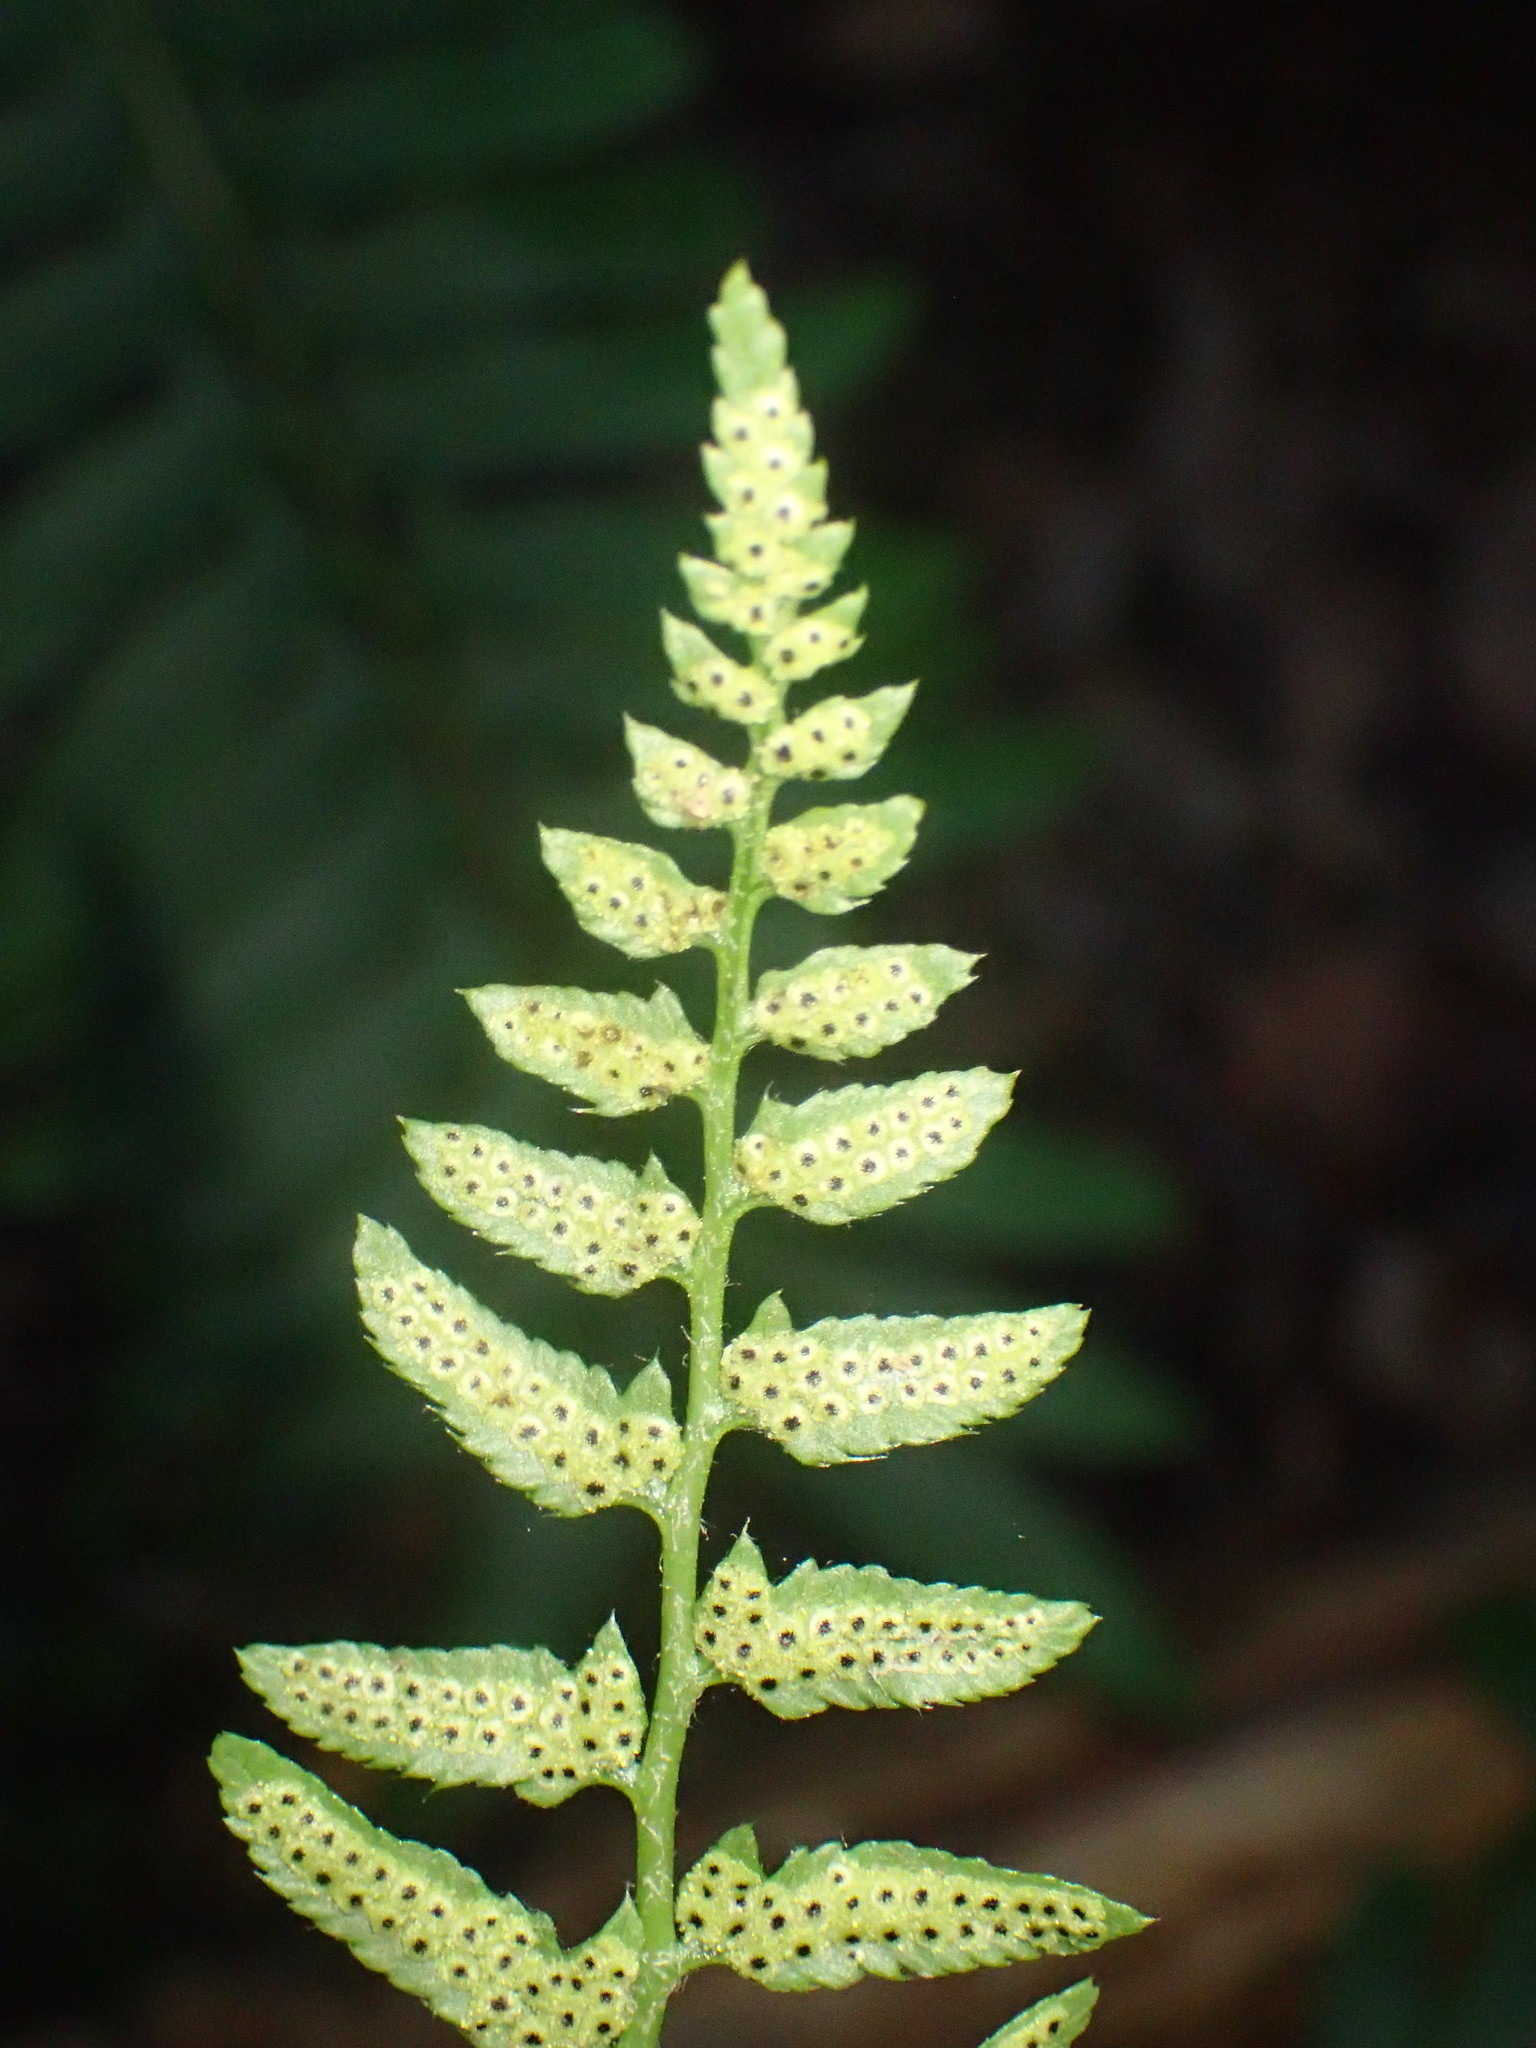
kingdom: Plantae
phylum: Tracheophyta
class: Polypodiopsida
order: Polypodiales
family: Dryopteridaceae
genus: Polystichum
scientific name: Polystichum acrostichoides
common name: Christmas fern
